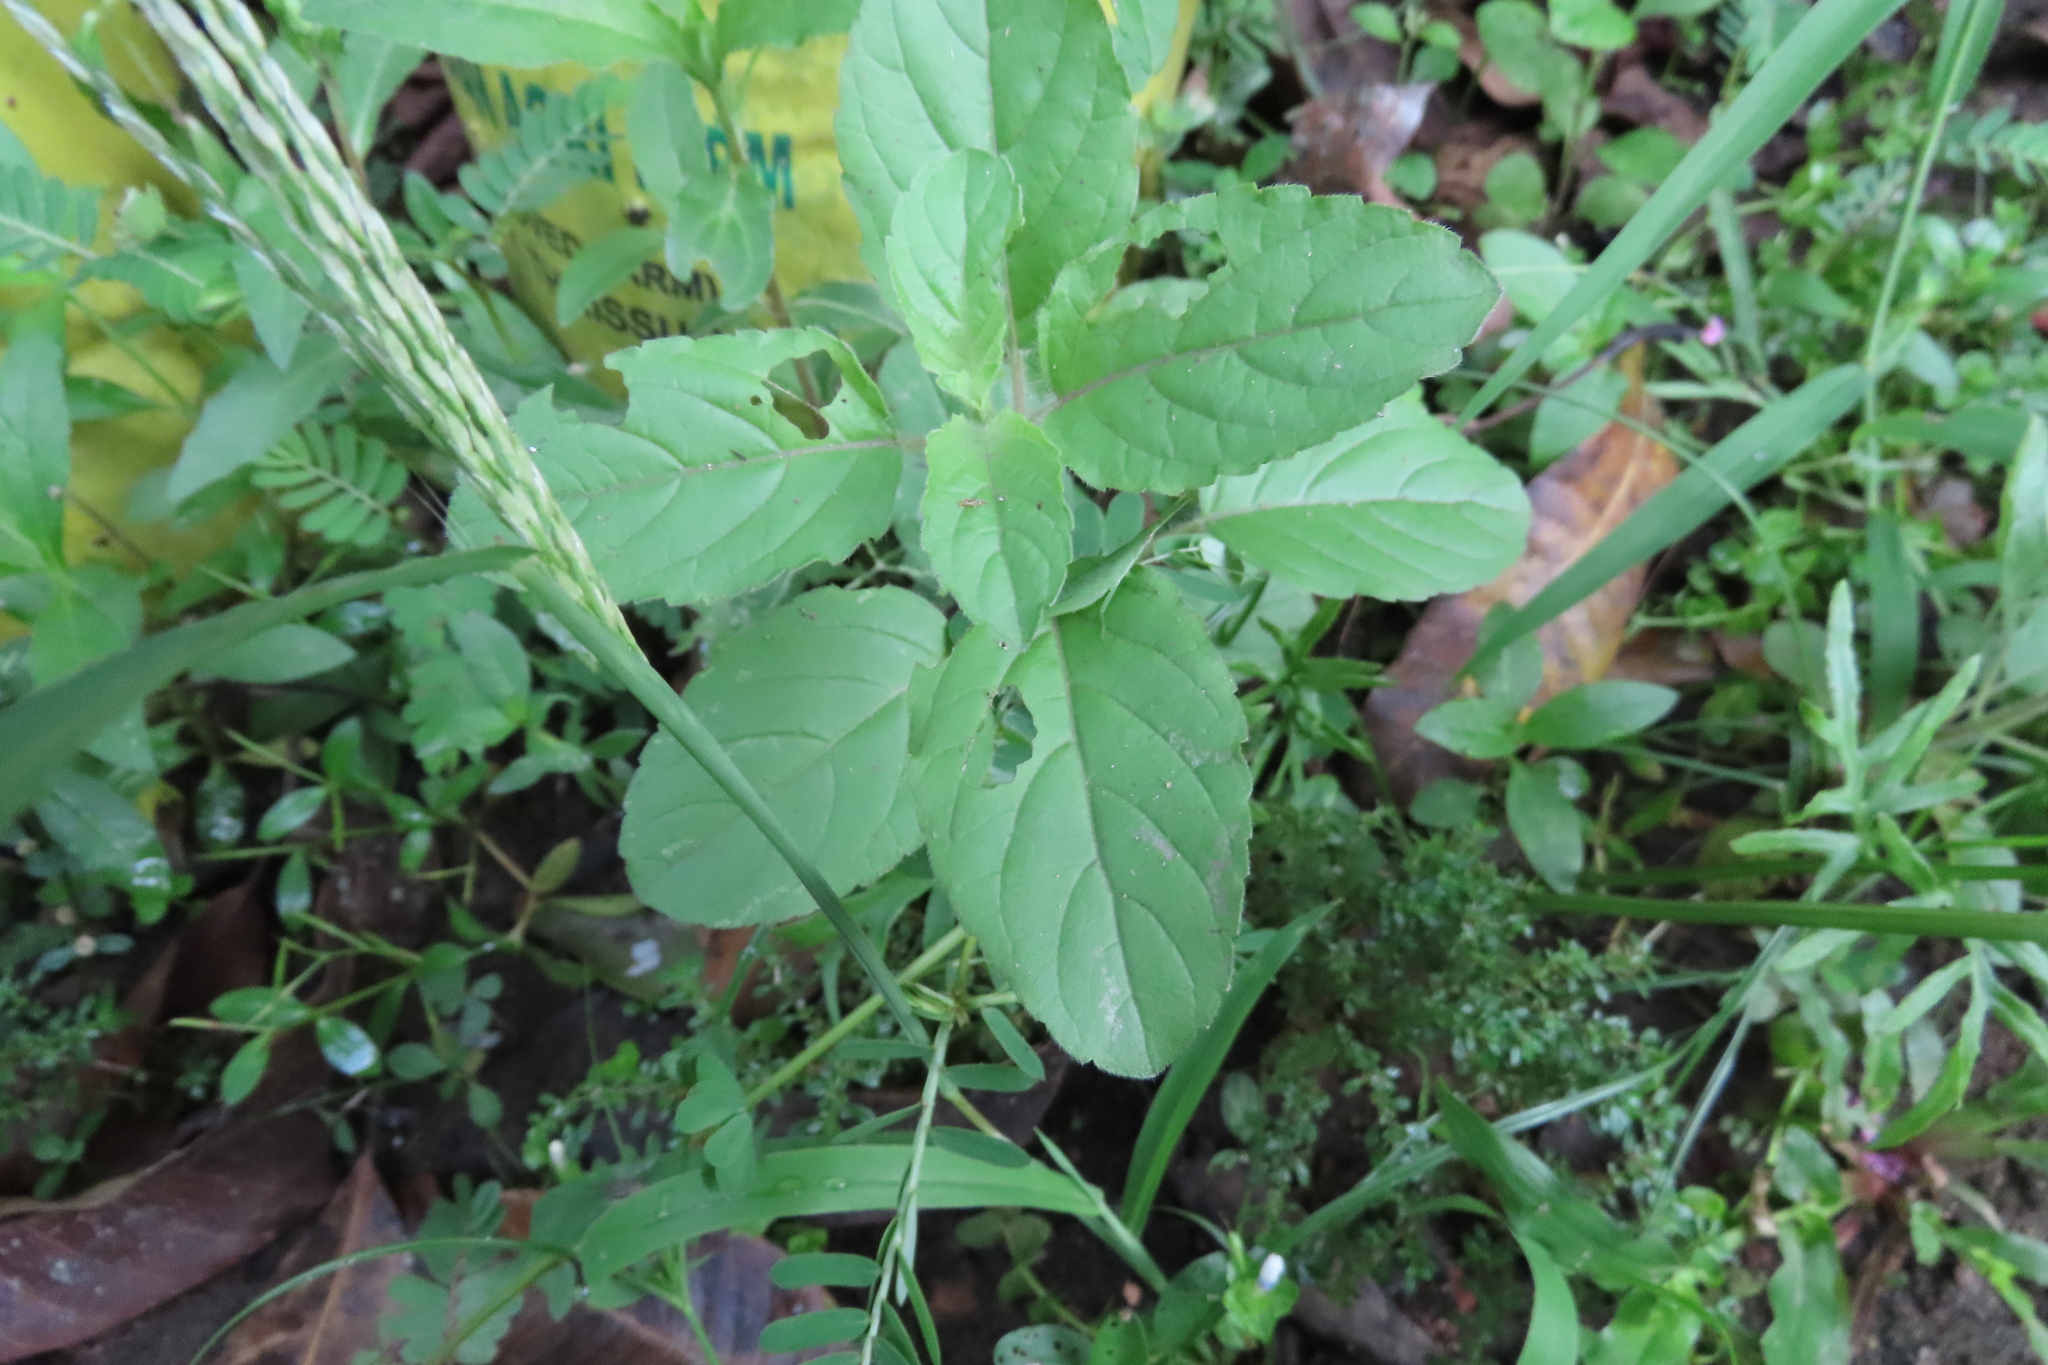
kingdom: Plantae
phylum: Tracheophyta
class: Magnoliopsida
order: Lamiales
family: Lamiaceae
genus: Ocimum
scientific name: Ocimum tenuiflorum
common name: Sacred basil
